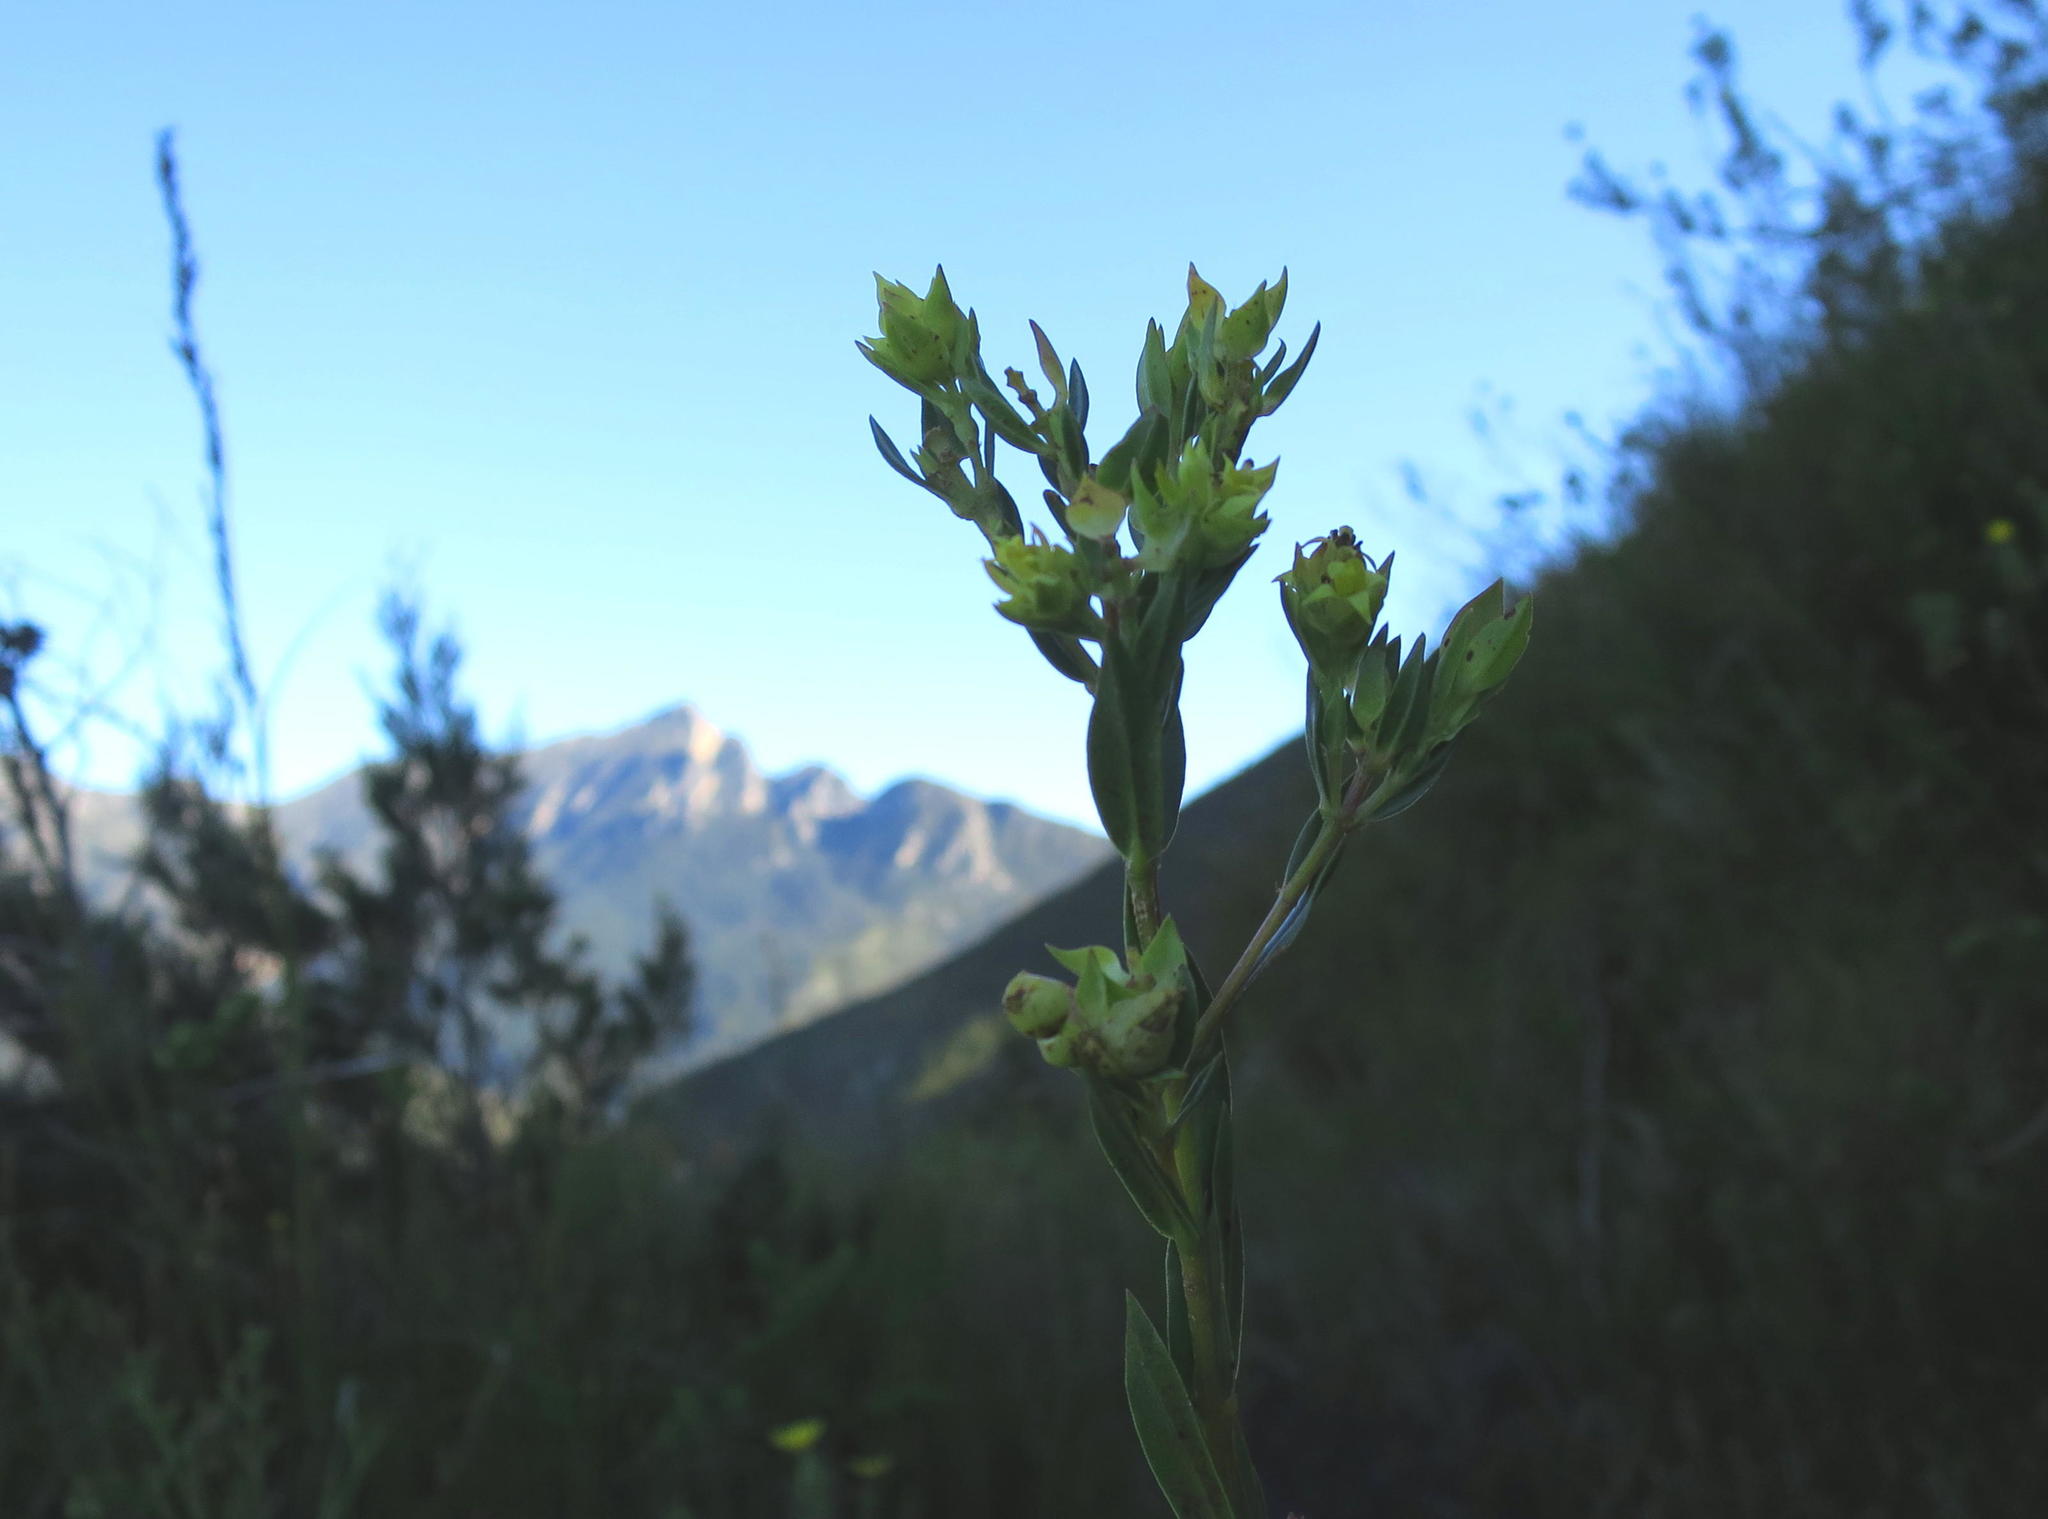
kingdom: Plantae
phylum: Tracheophyta
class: Magnoliopsida
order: Myrtales
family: Penaeaceae
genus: Penaea
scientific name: Penaea acutifolia
